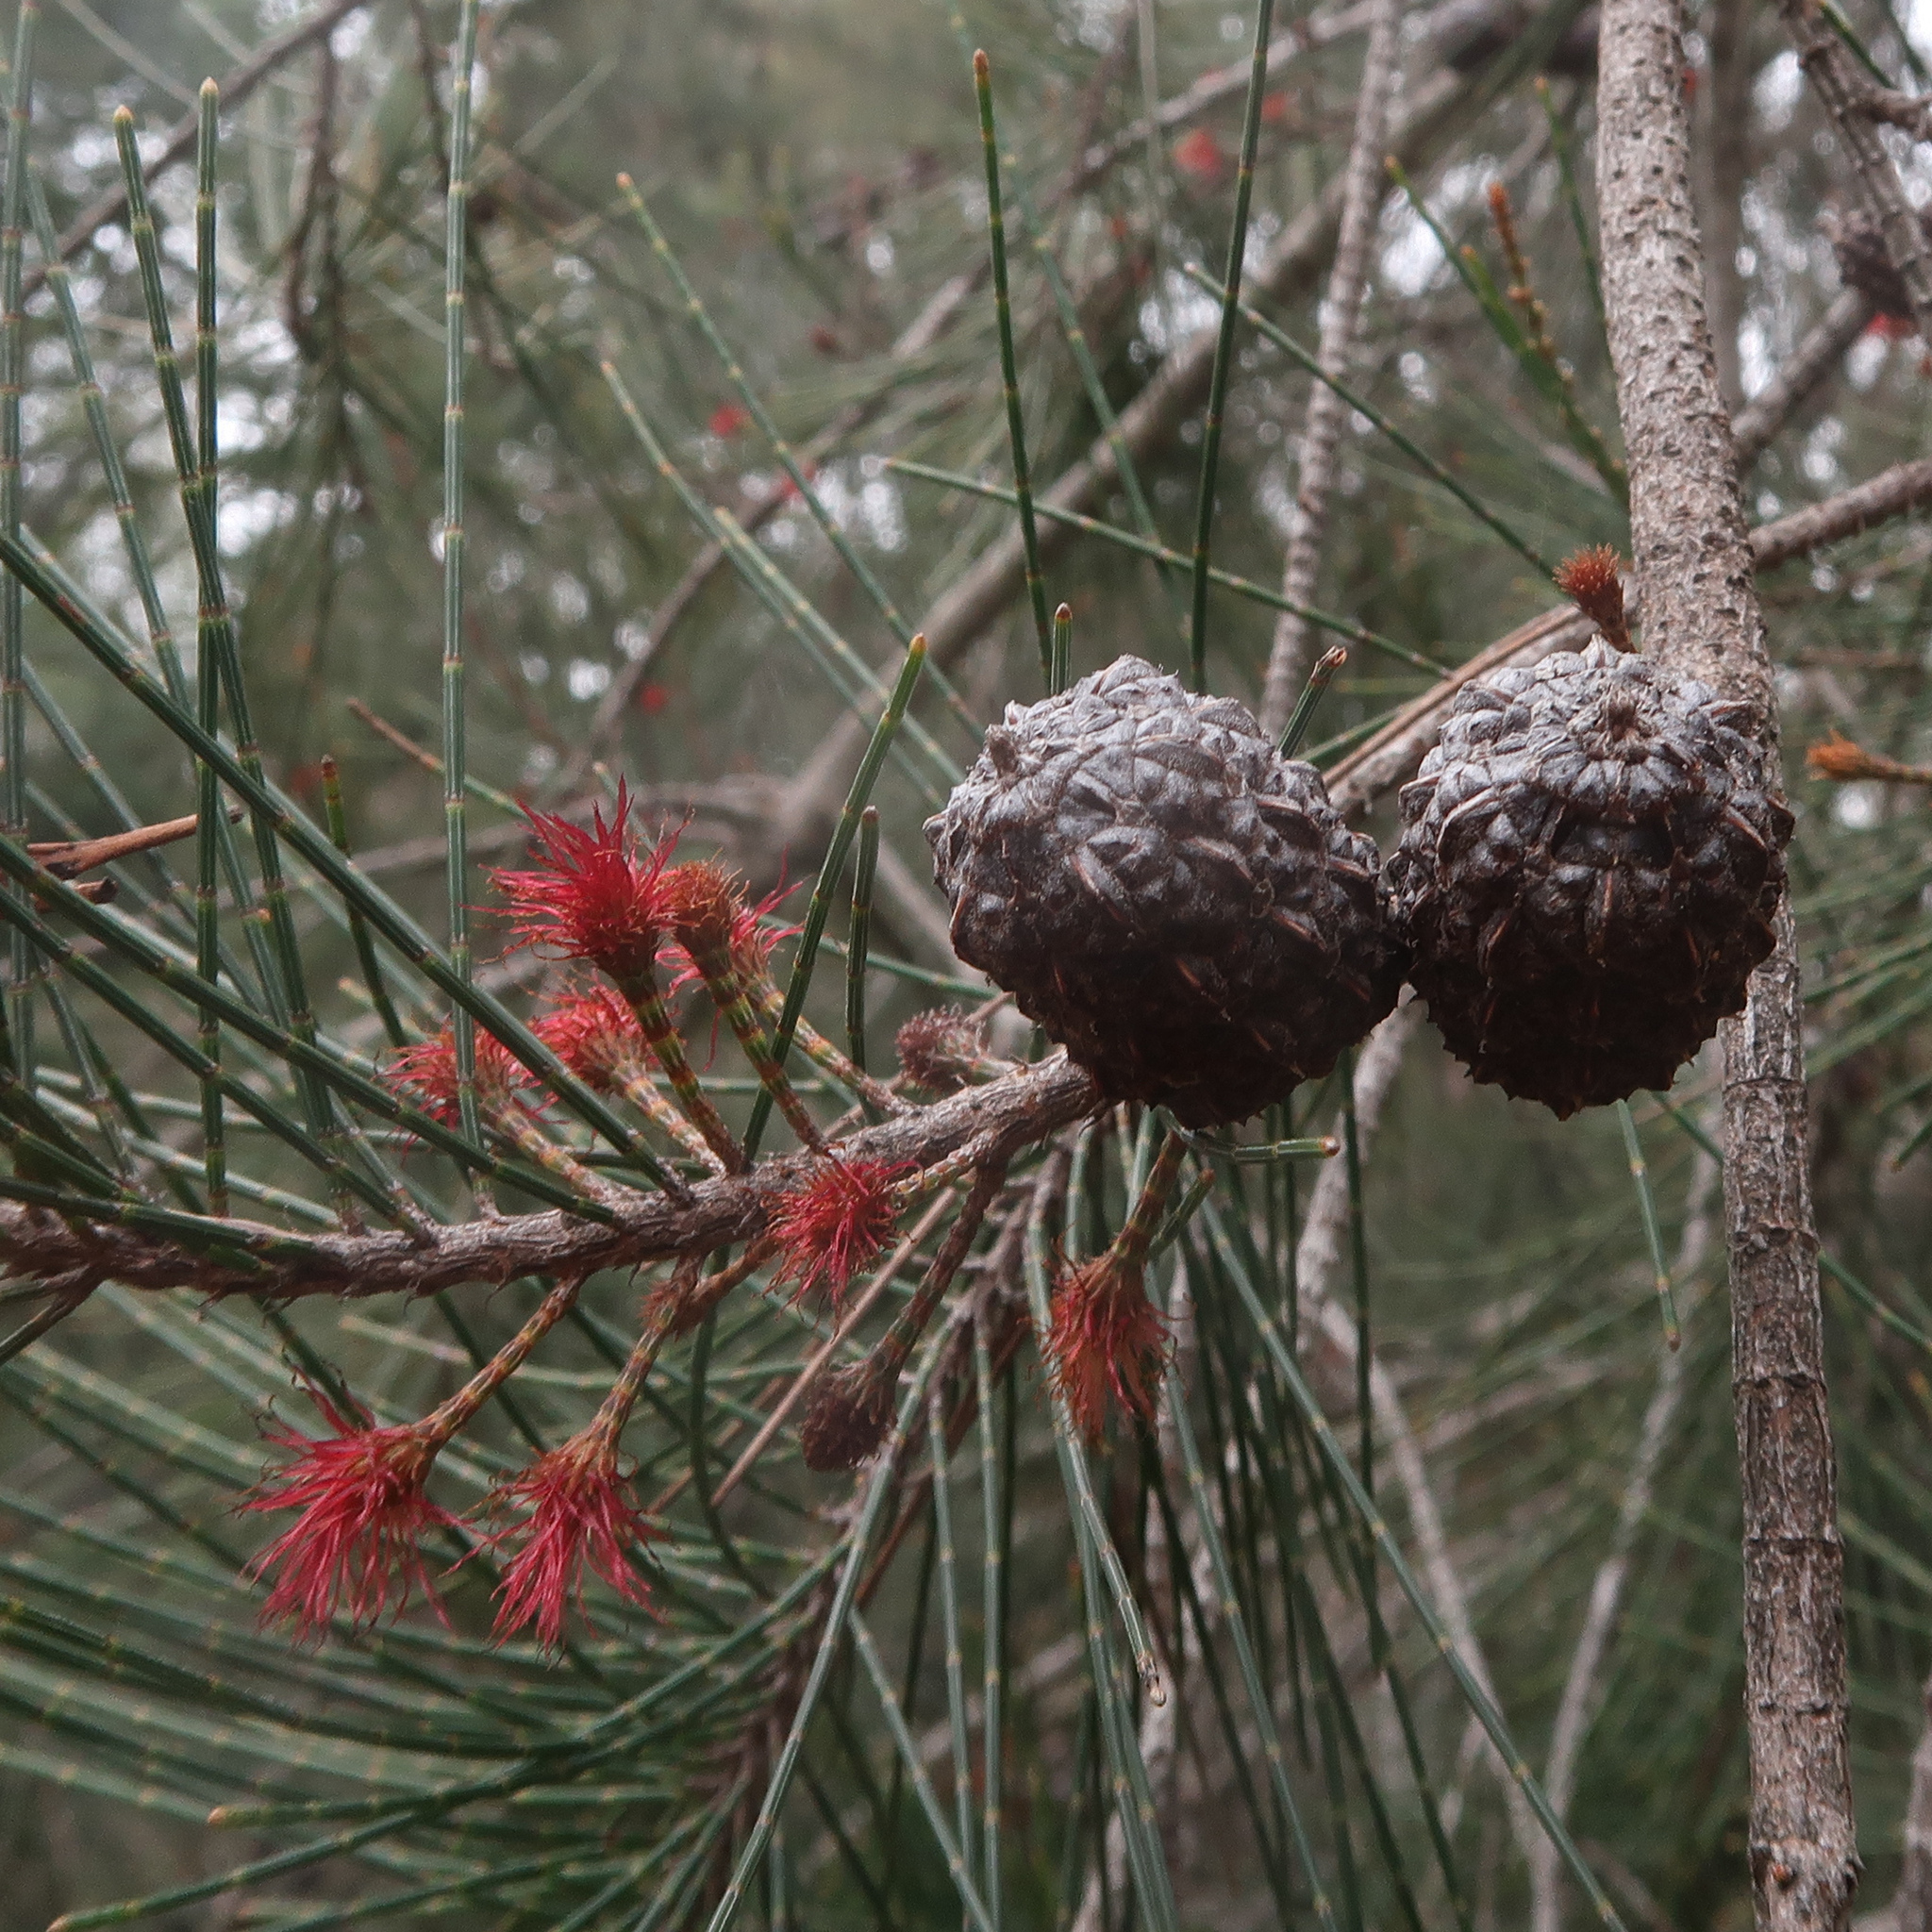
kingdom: Plantae
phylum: Tracheophyta
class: Magnoliopsida
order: Fagales
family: Casuarinaceae
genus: Allocasuarina
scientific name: Allocasuarina littoralis
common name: Black she-oak
